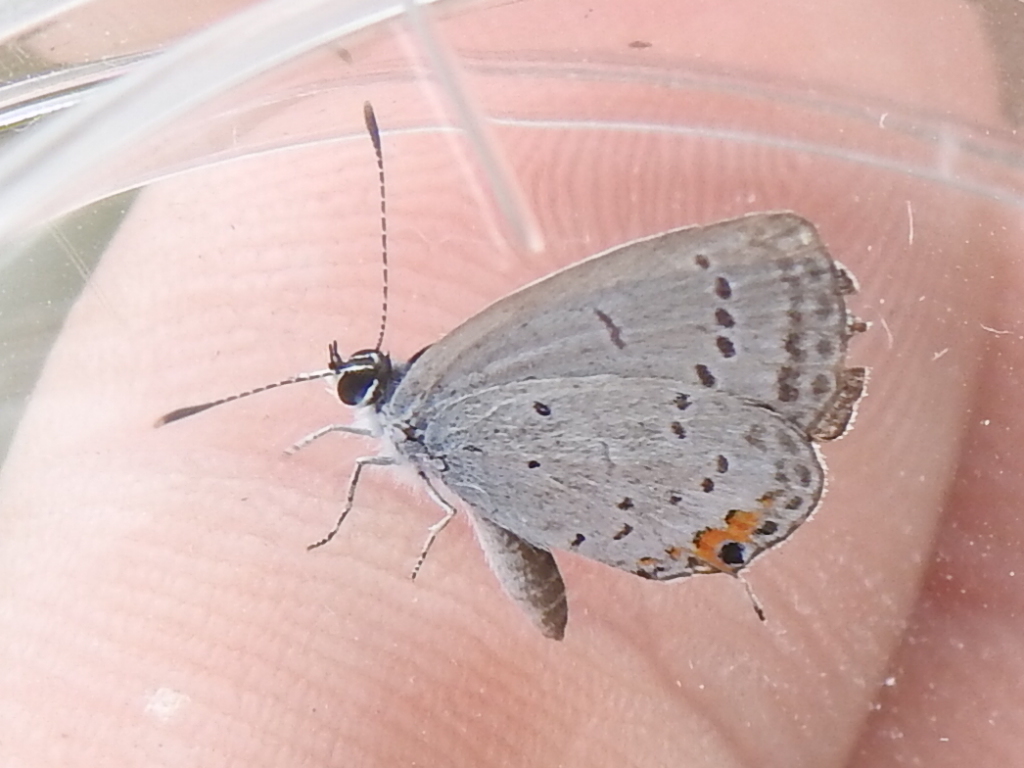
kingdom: Animalia
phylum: Arthropoda
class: Insecta
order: Lepidoptera
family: Lycaenidae
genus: Elkalyce
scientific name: Elkalyce comyntas
